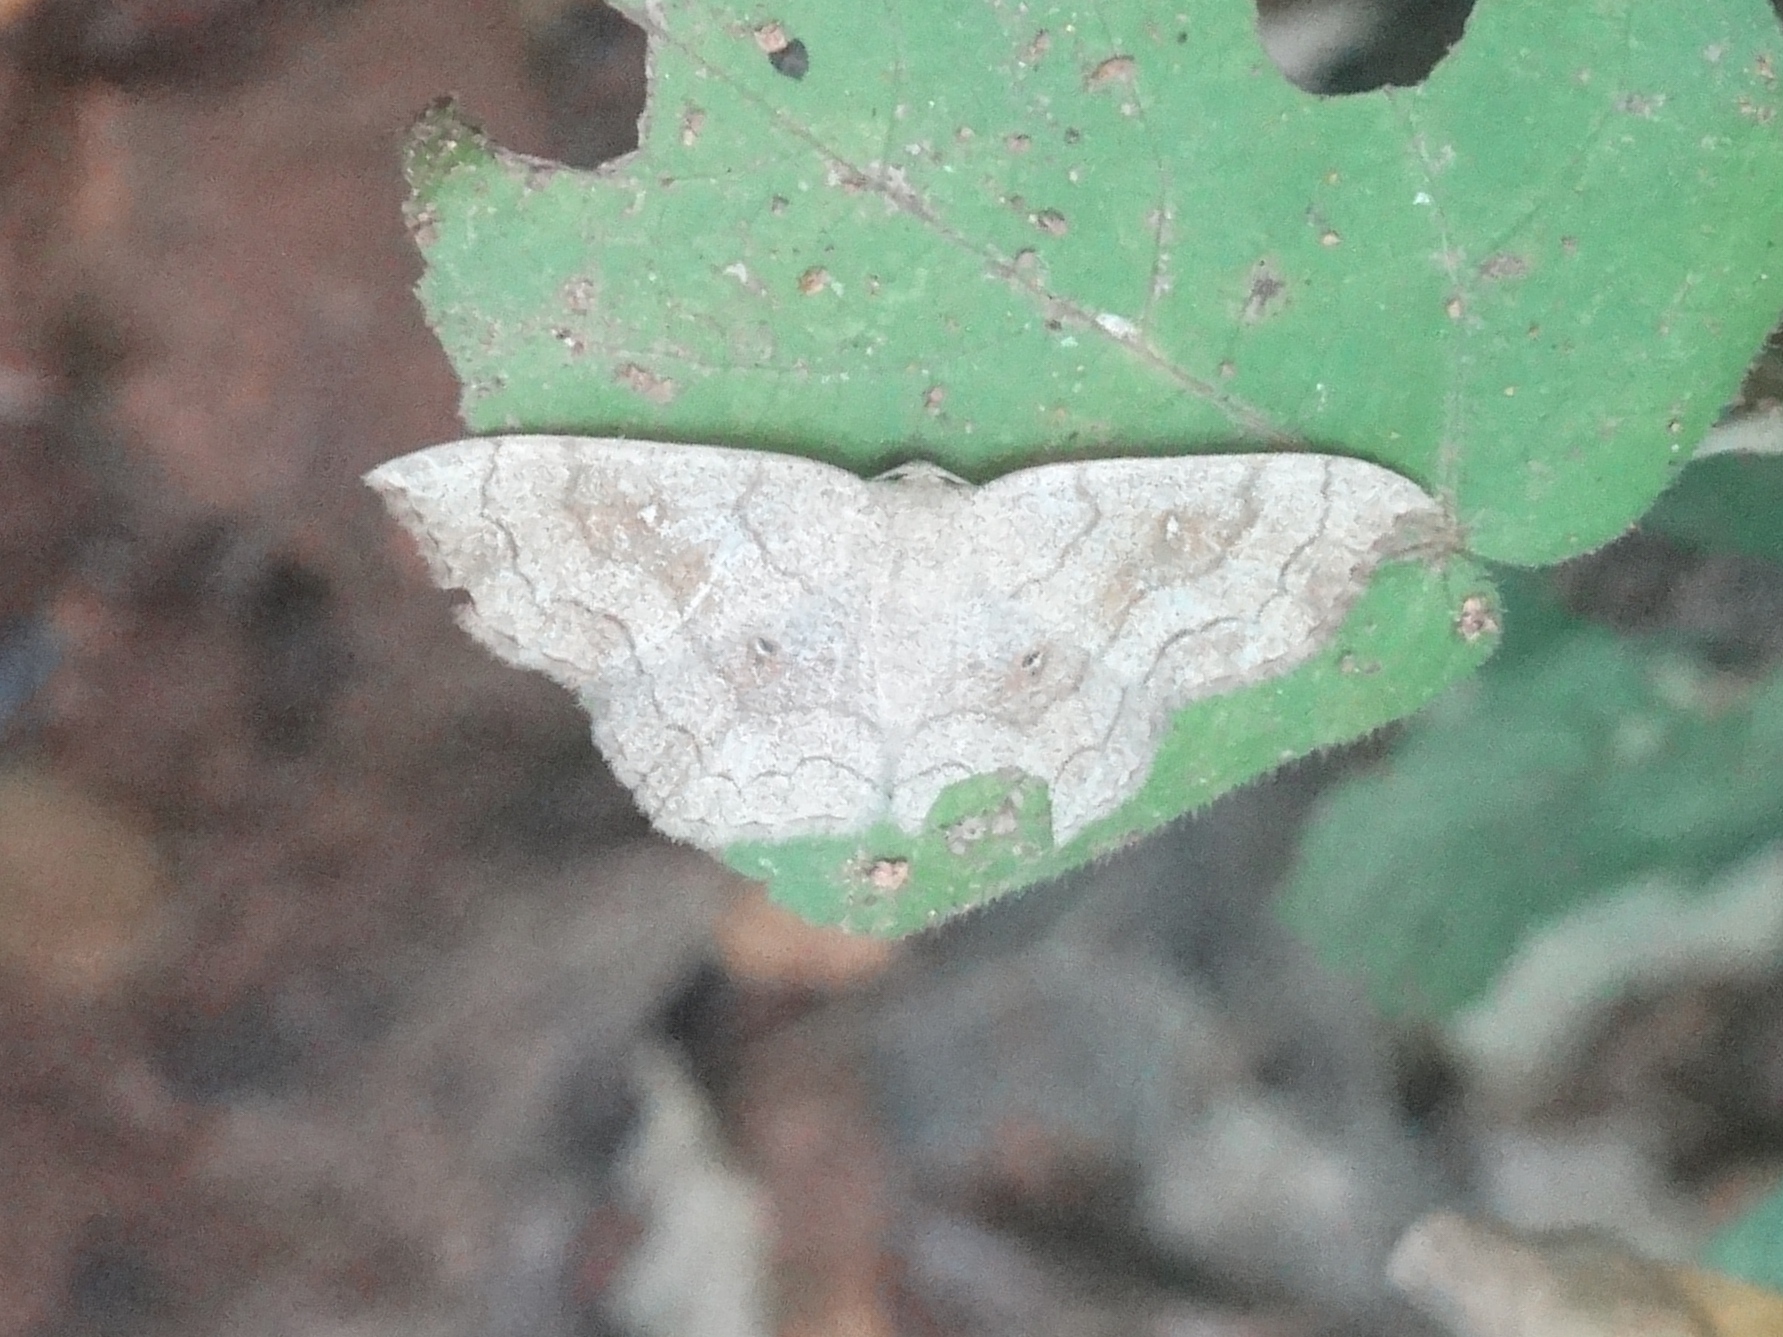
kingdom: Animalia
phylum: Arthropoda
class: Insecta
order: Lepidoptera
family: Geometridae
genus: Cyclophora
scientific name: Cyclophora
